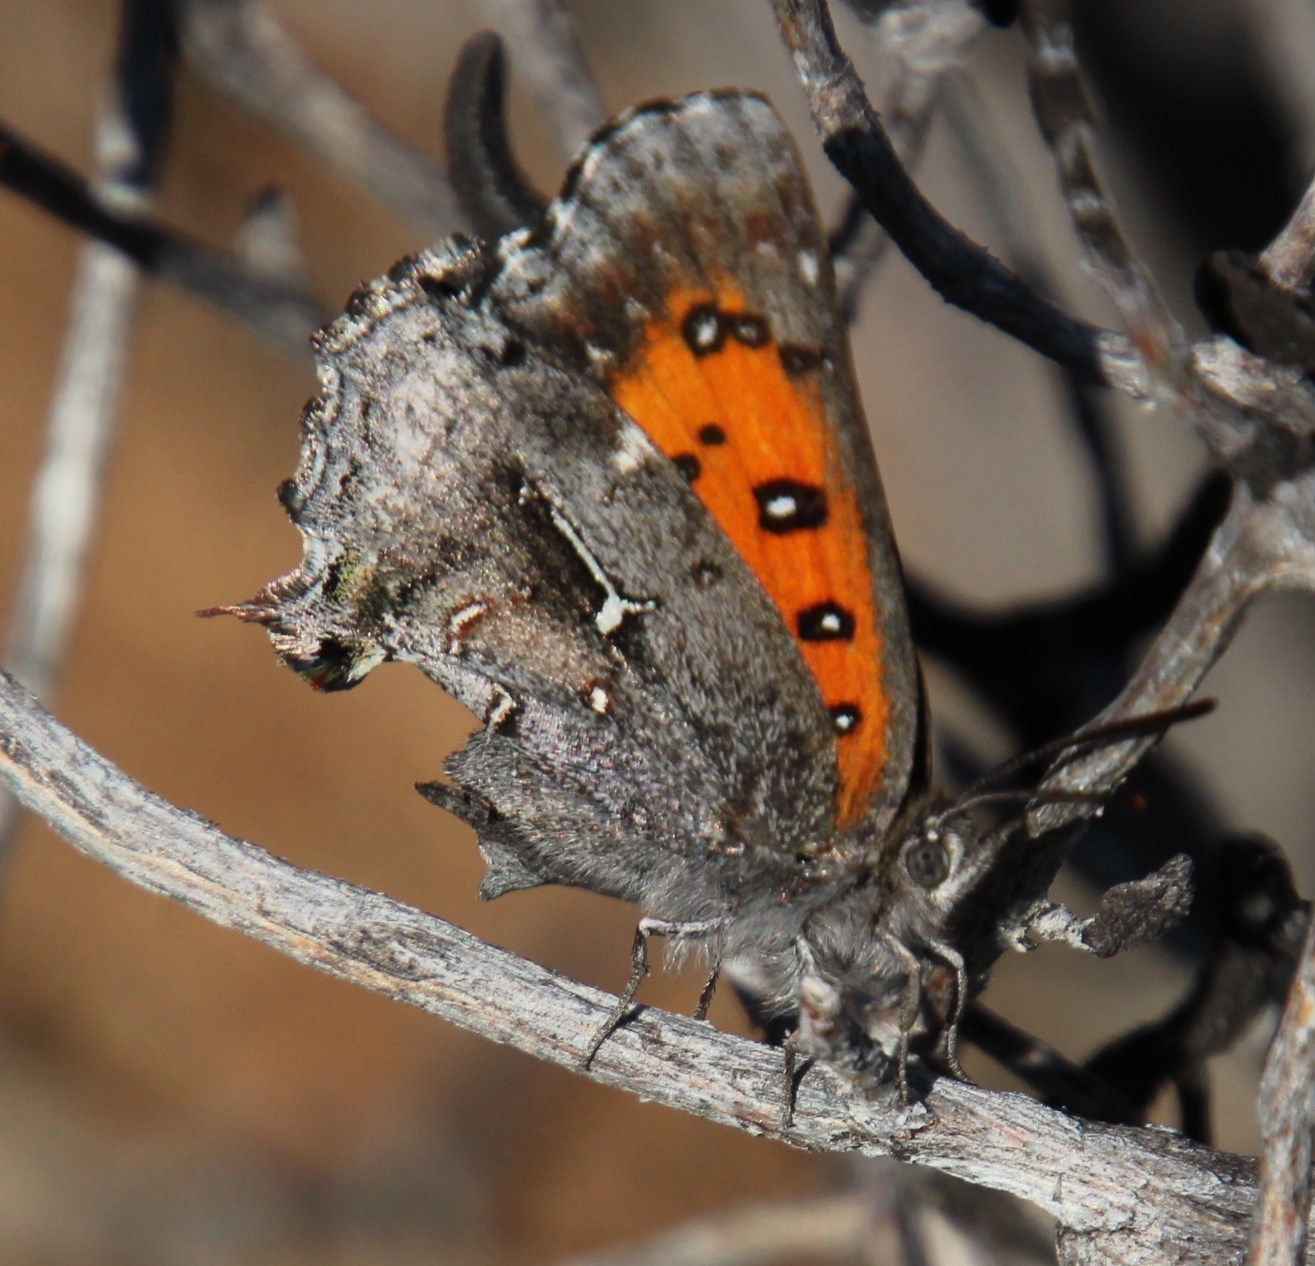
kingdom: Animalia
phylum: Arthropoda
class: Insecta
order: Lepidoptera
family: Lycaenidae
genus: Phasis
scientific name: Phasis clavum
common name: Namaqua arrowhead
